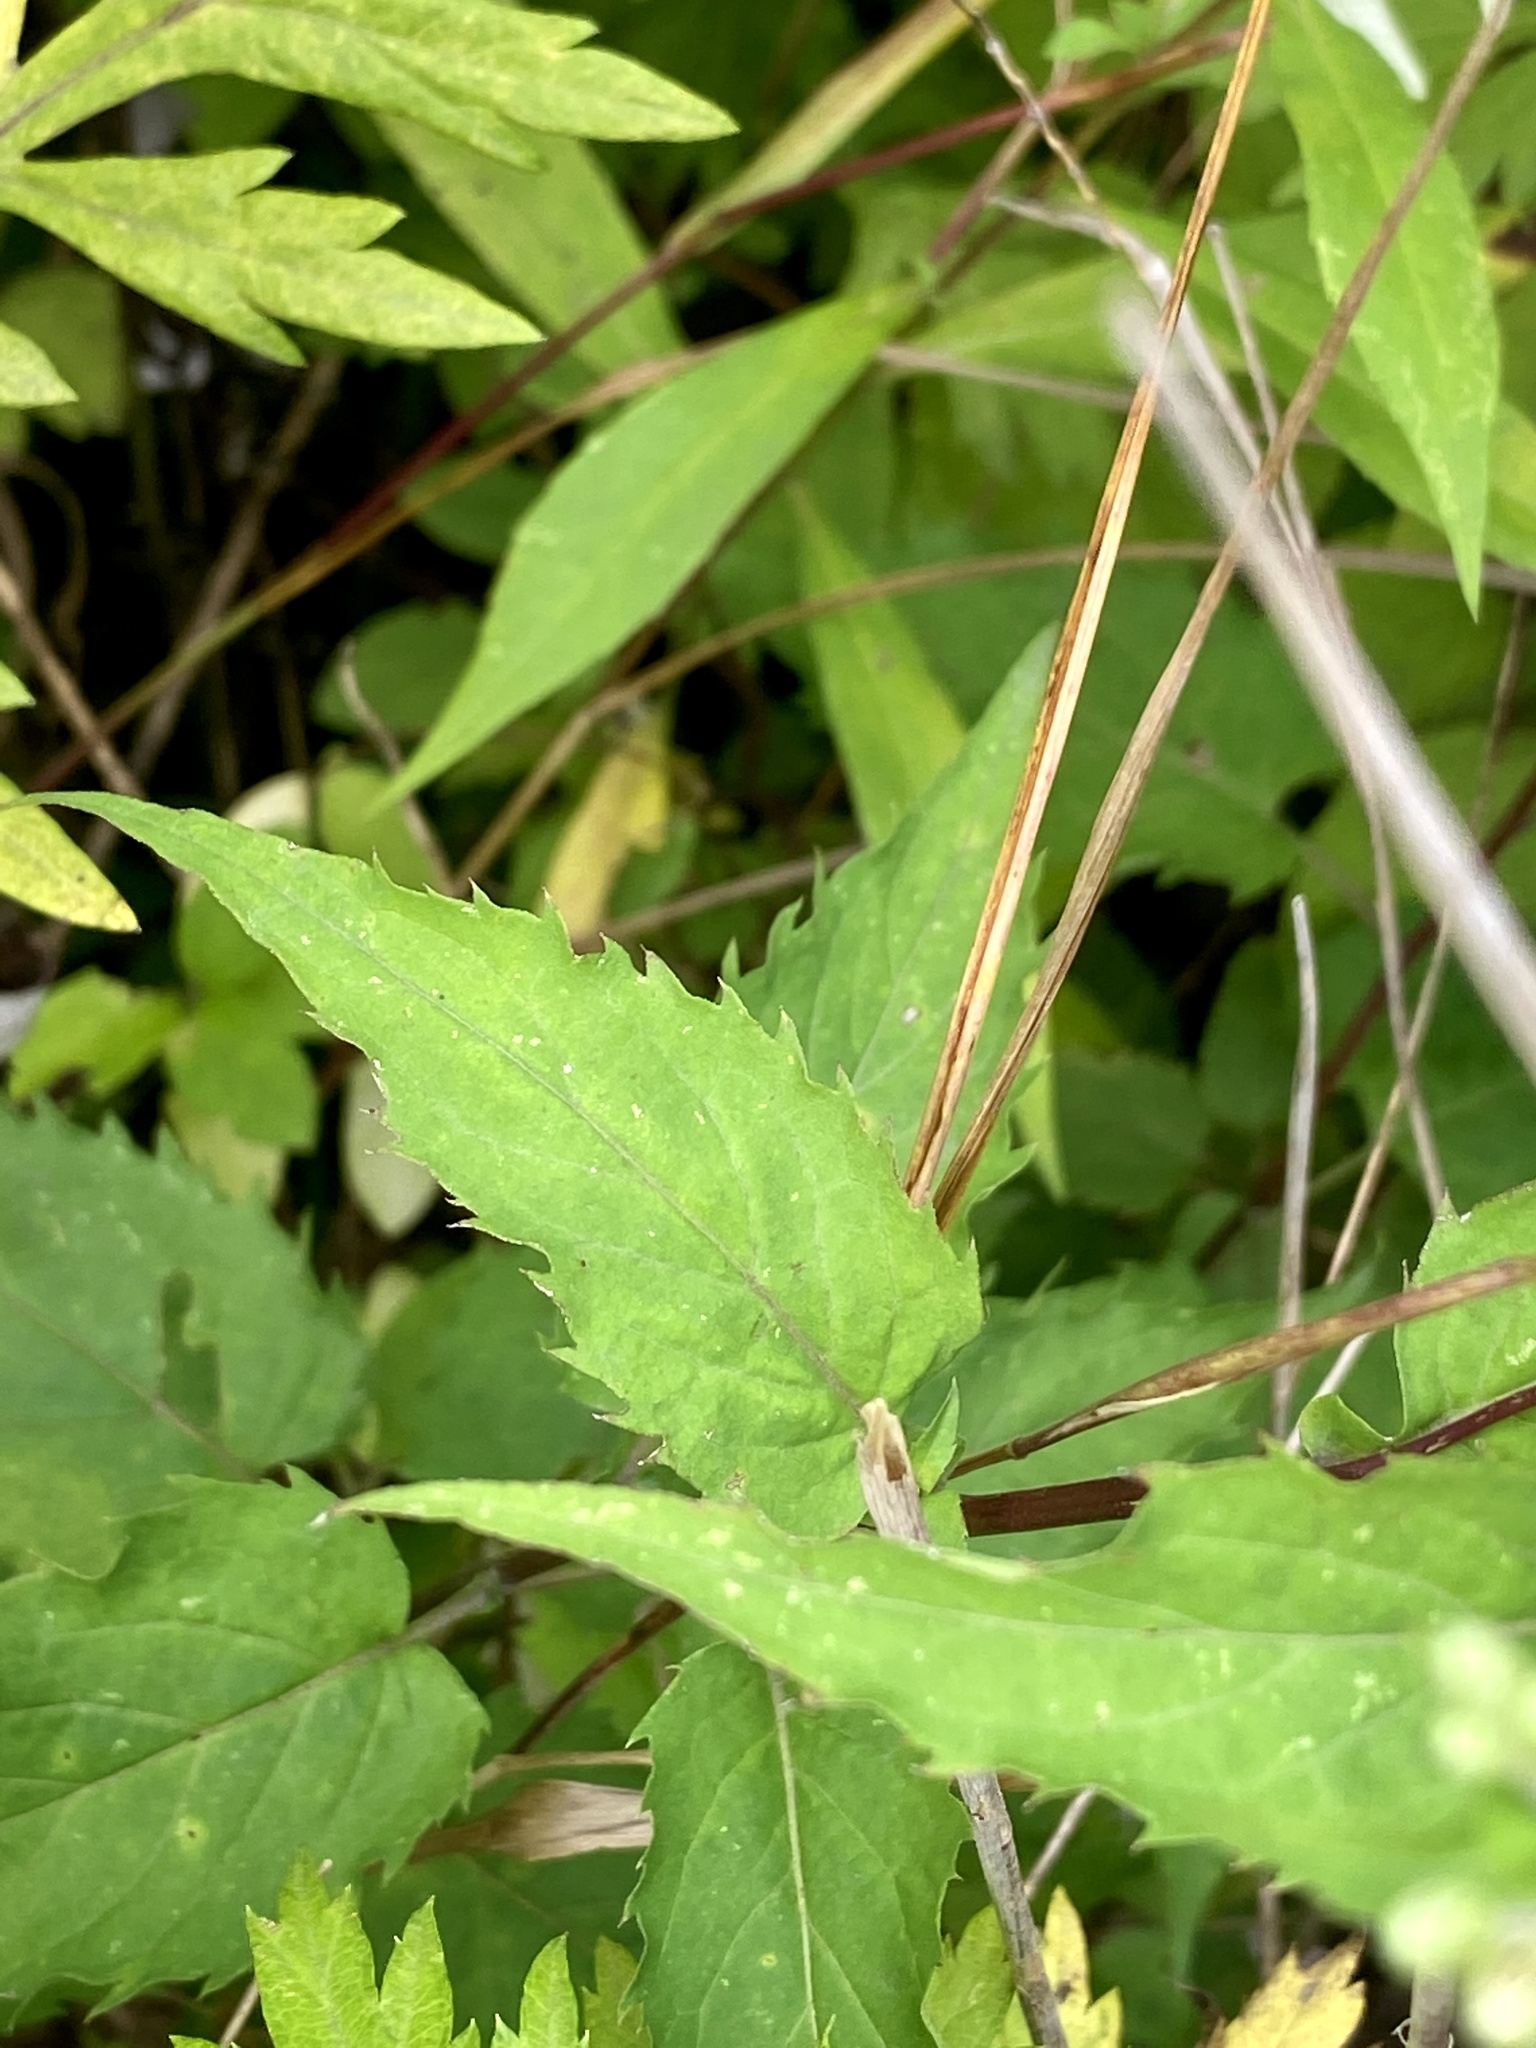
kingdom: Plantae
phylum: Tracheophyta
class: Magnoliopsida
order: Asterales
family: Asteraceae
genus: Eurybia
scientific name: Eurybia divaricata
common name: White wood aster
